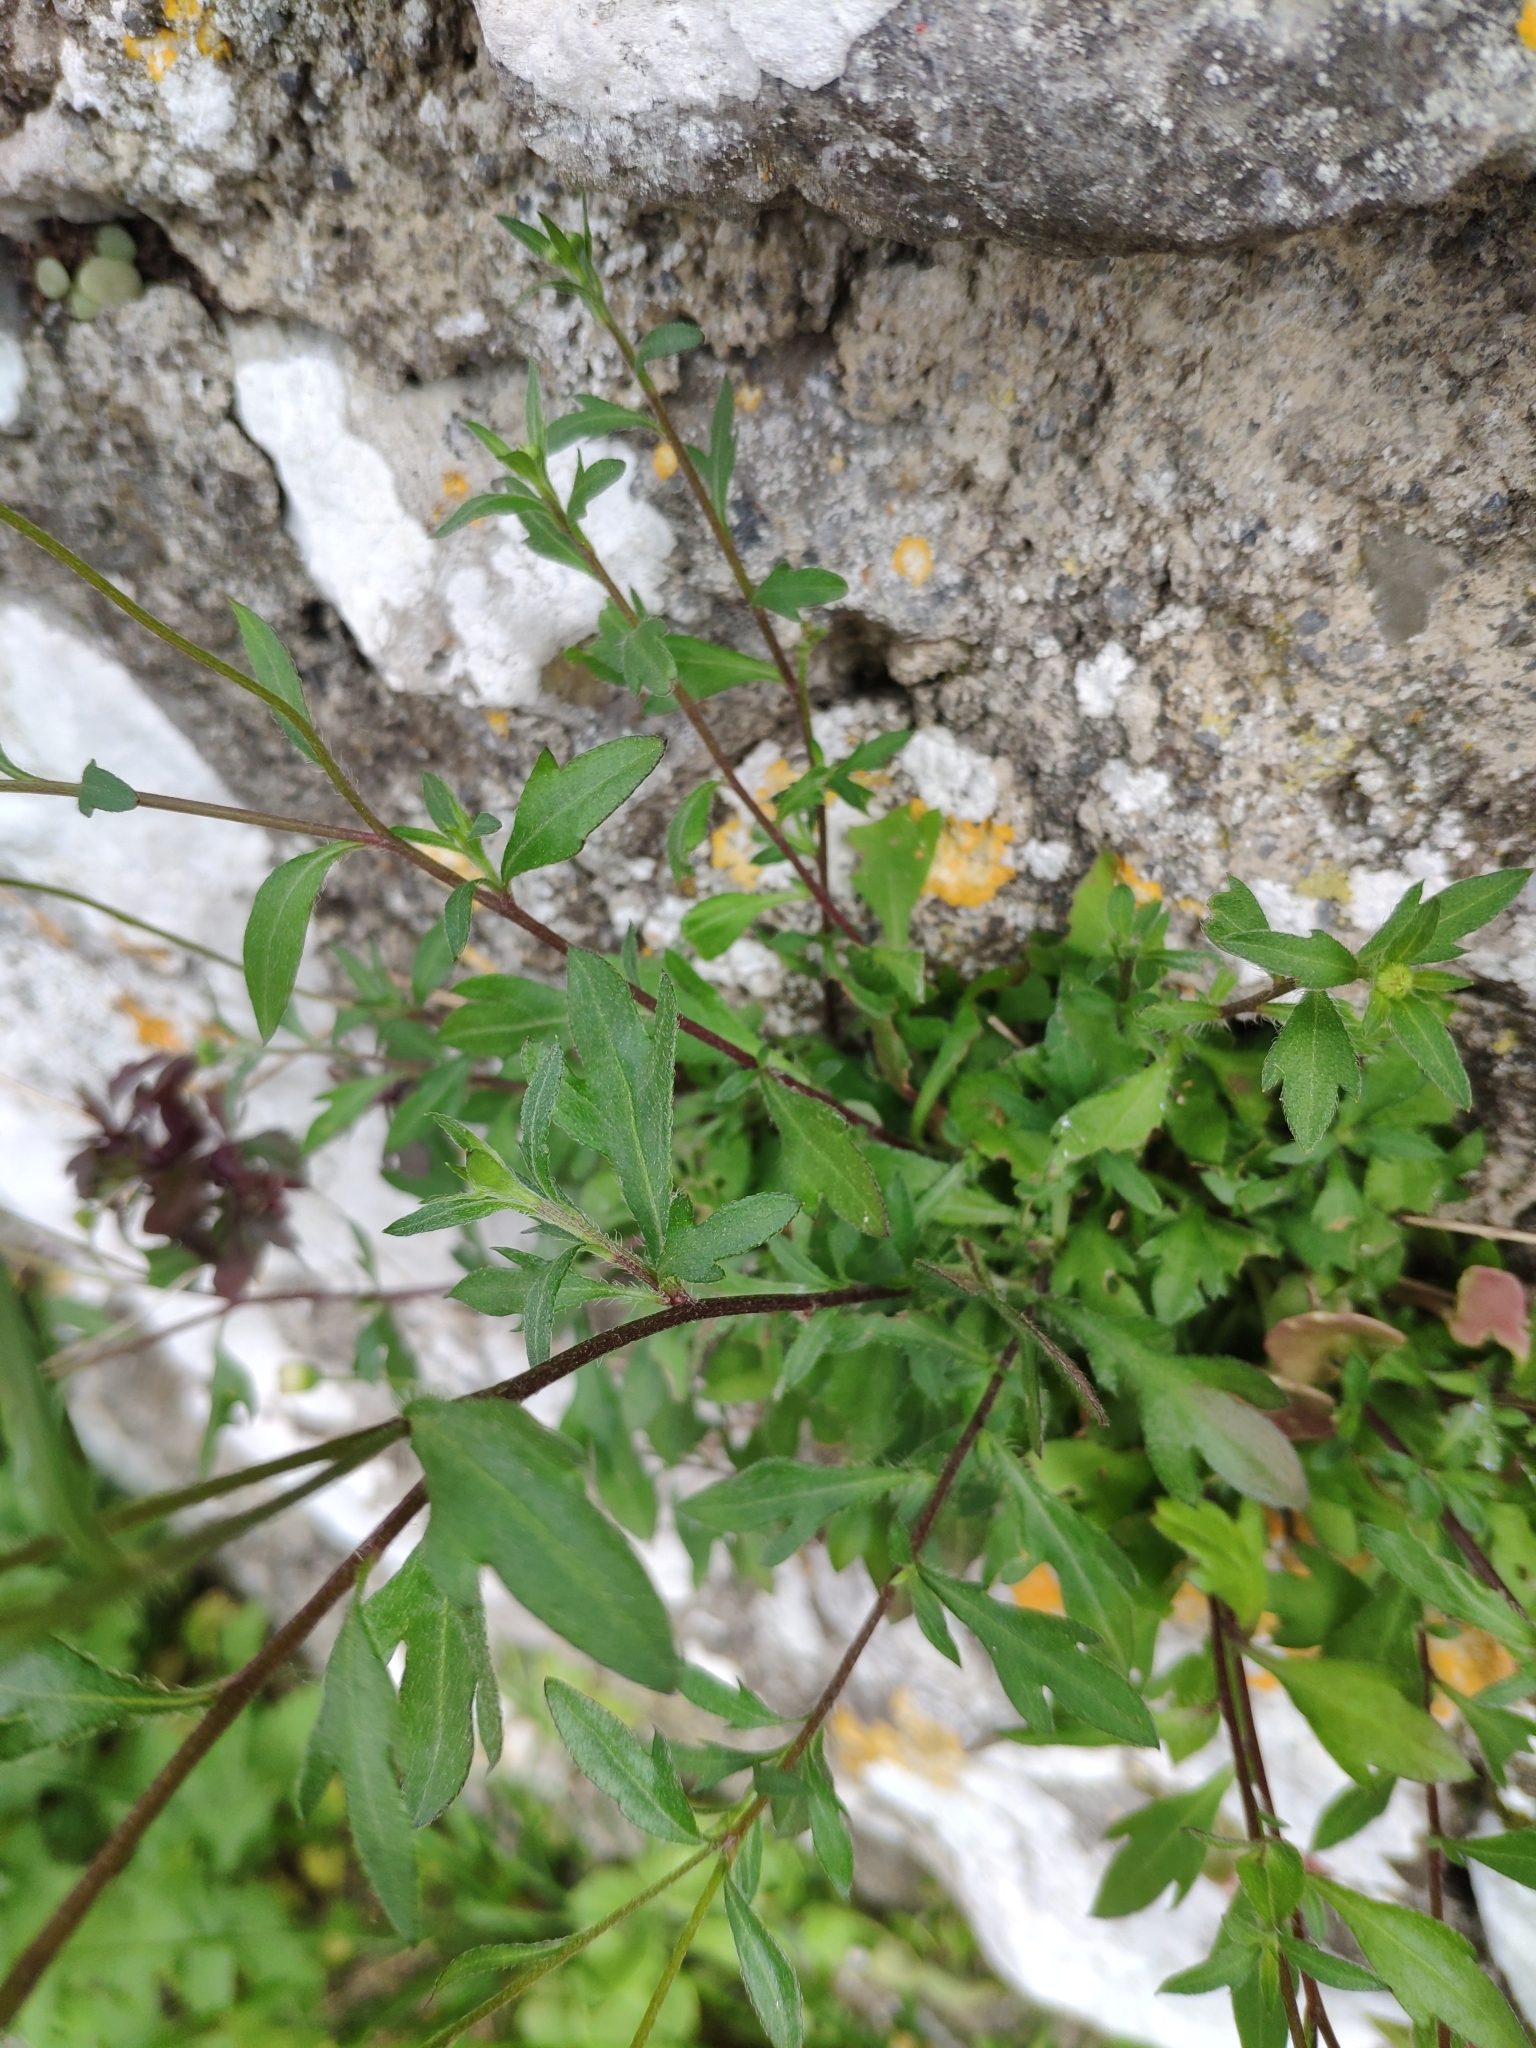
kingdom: Plantae
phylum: Tracheophyta
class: Magnoliopsida
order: Asterales
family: Asteraceae
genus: Erigeron
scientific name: Erigeron karvinskianus
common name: Mexican fleabane
